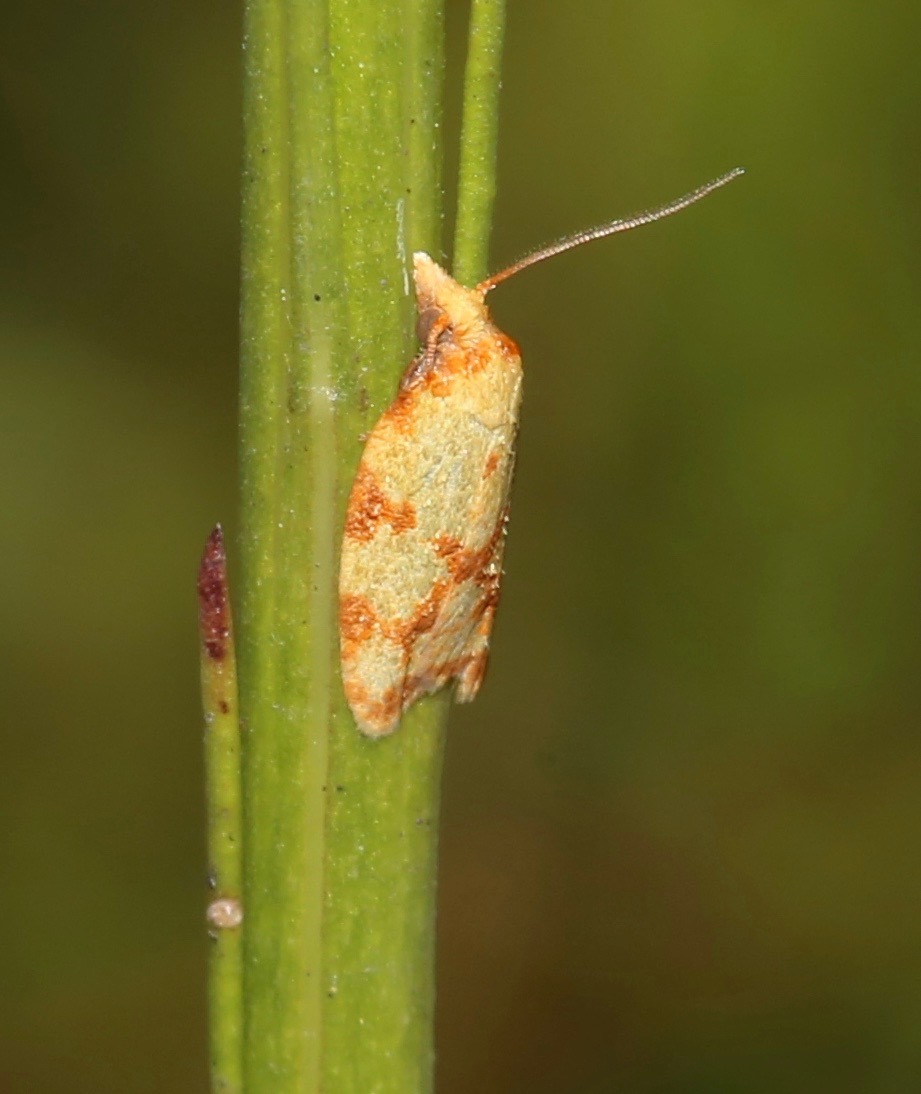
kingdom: Animalia
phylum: Arthropoda
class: Insecta
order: Lepidoptera
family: Tortricidae
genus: Sparganothis
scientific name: Sparganothis sulfureana
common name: Sparganothis fruitworm moth
